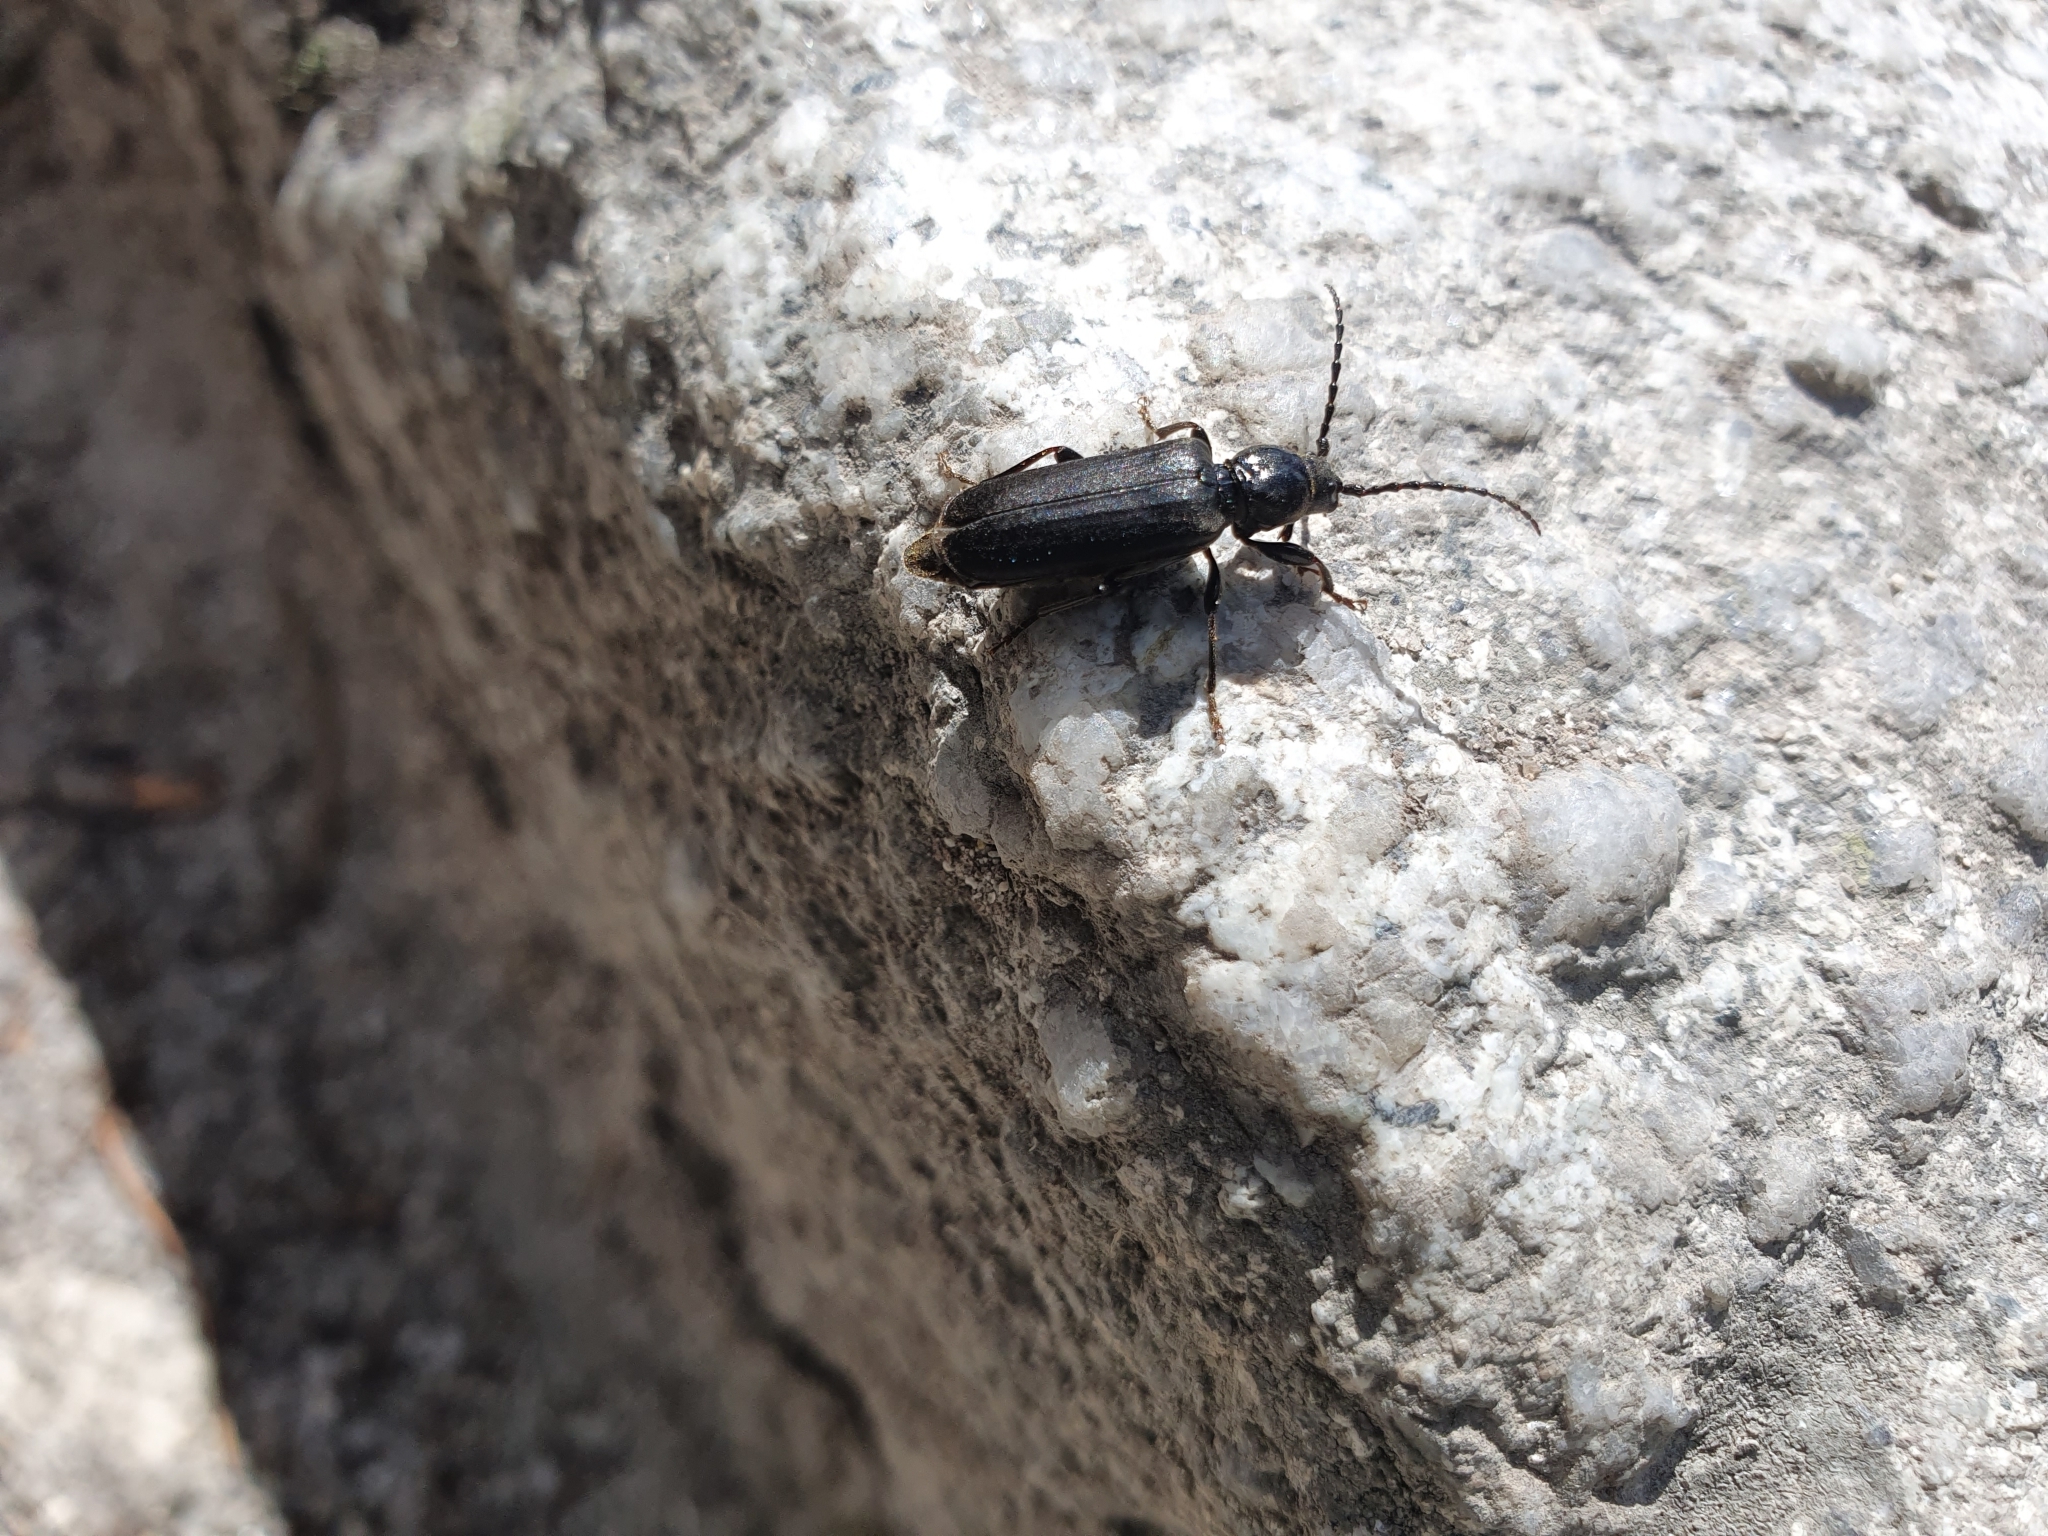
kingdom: Animalia
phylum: Arthropoda
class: Insecta
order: Coleoptera
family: Cerambycidae
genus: Tetropium
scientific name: Tetropium castaneum
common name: Long-horned beetle
